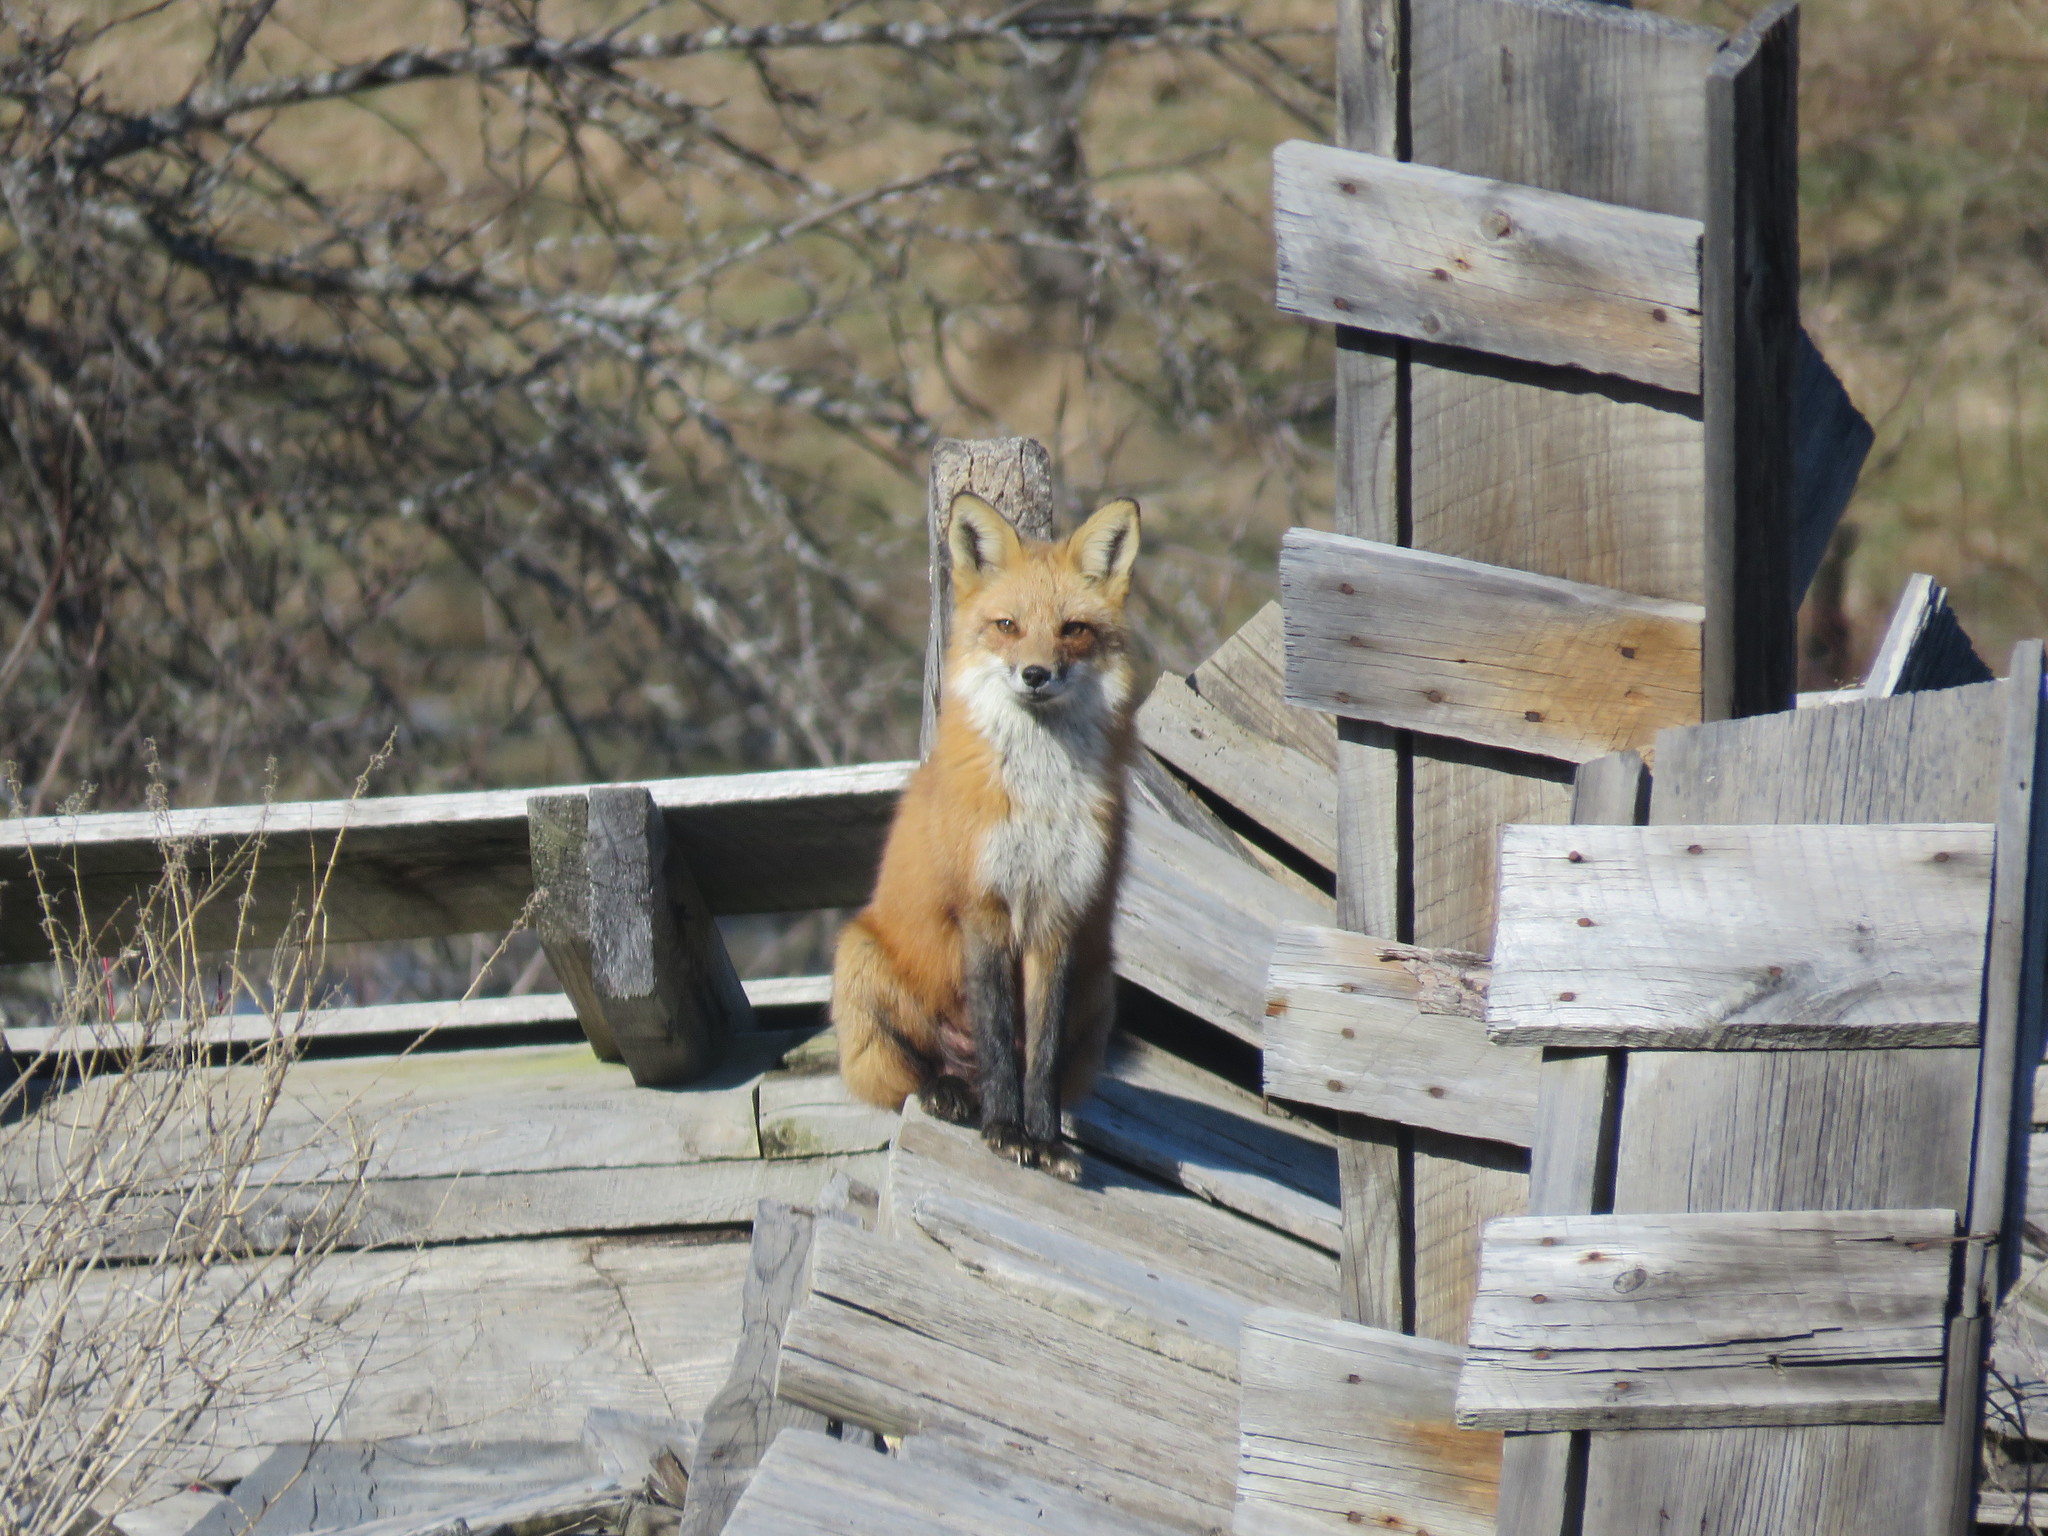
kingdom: Animalia
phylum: Chordata
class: Mammalia
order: Carnivora
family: Canidae
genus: Vulpes
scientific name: Vulpes vulpes
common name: Red fox
